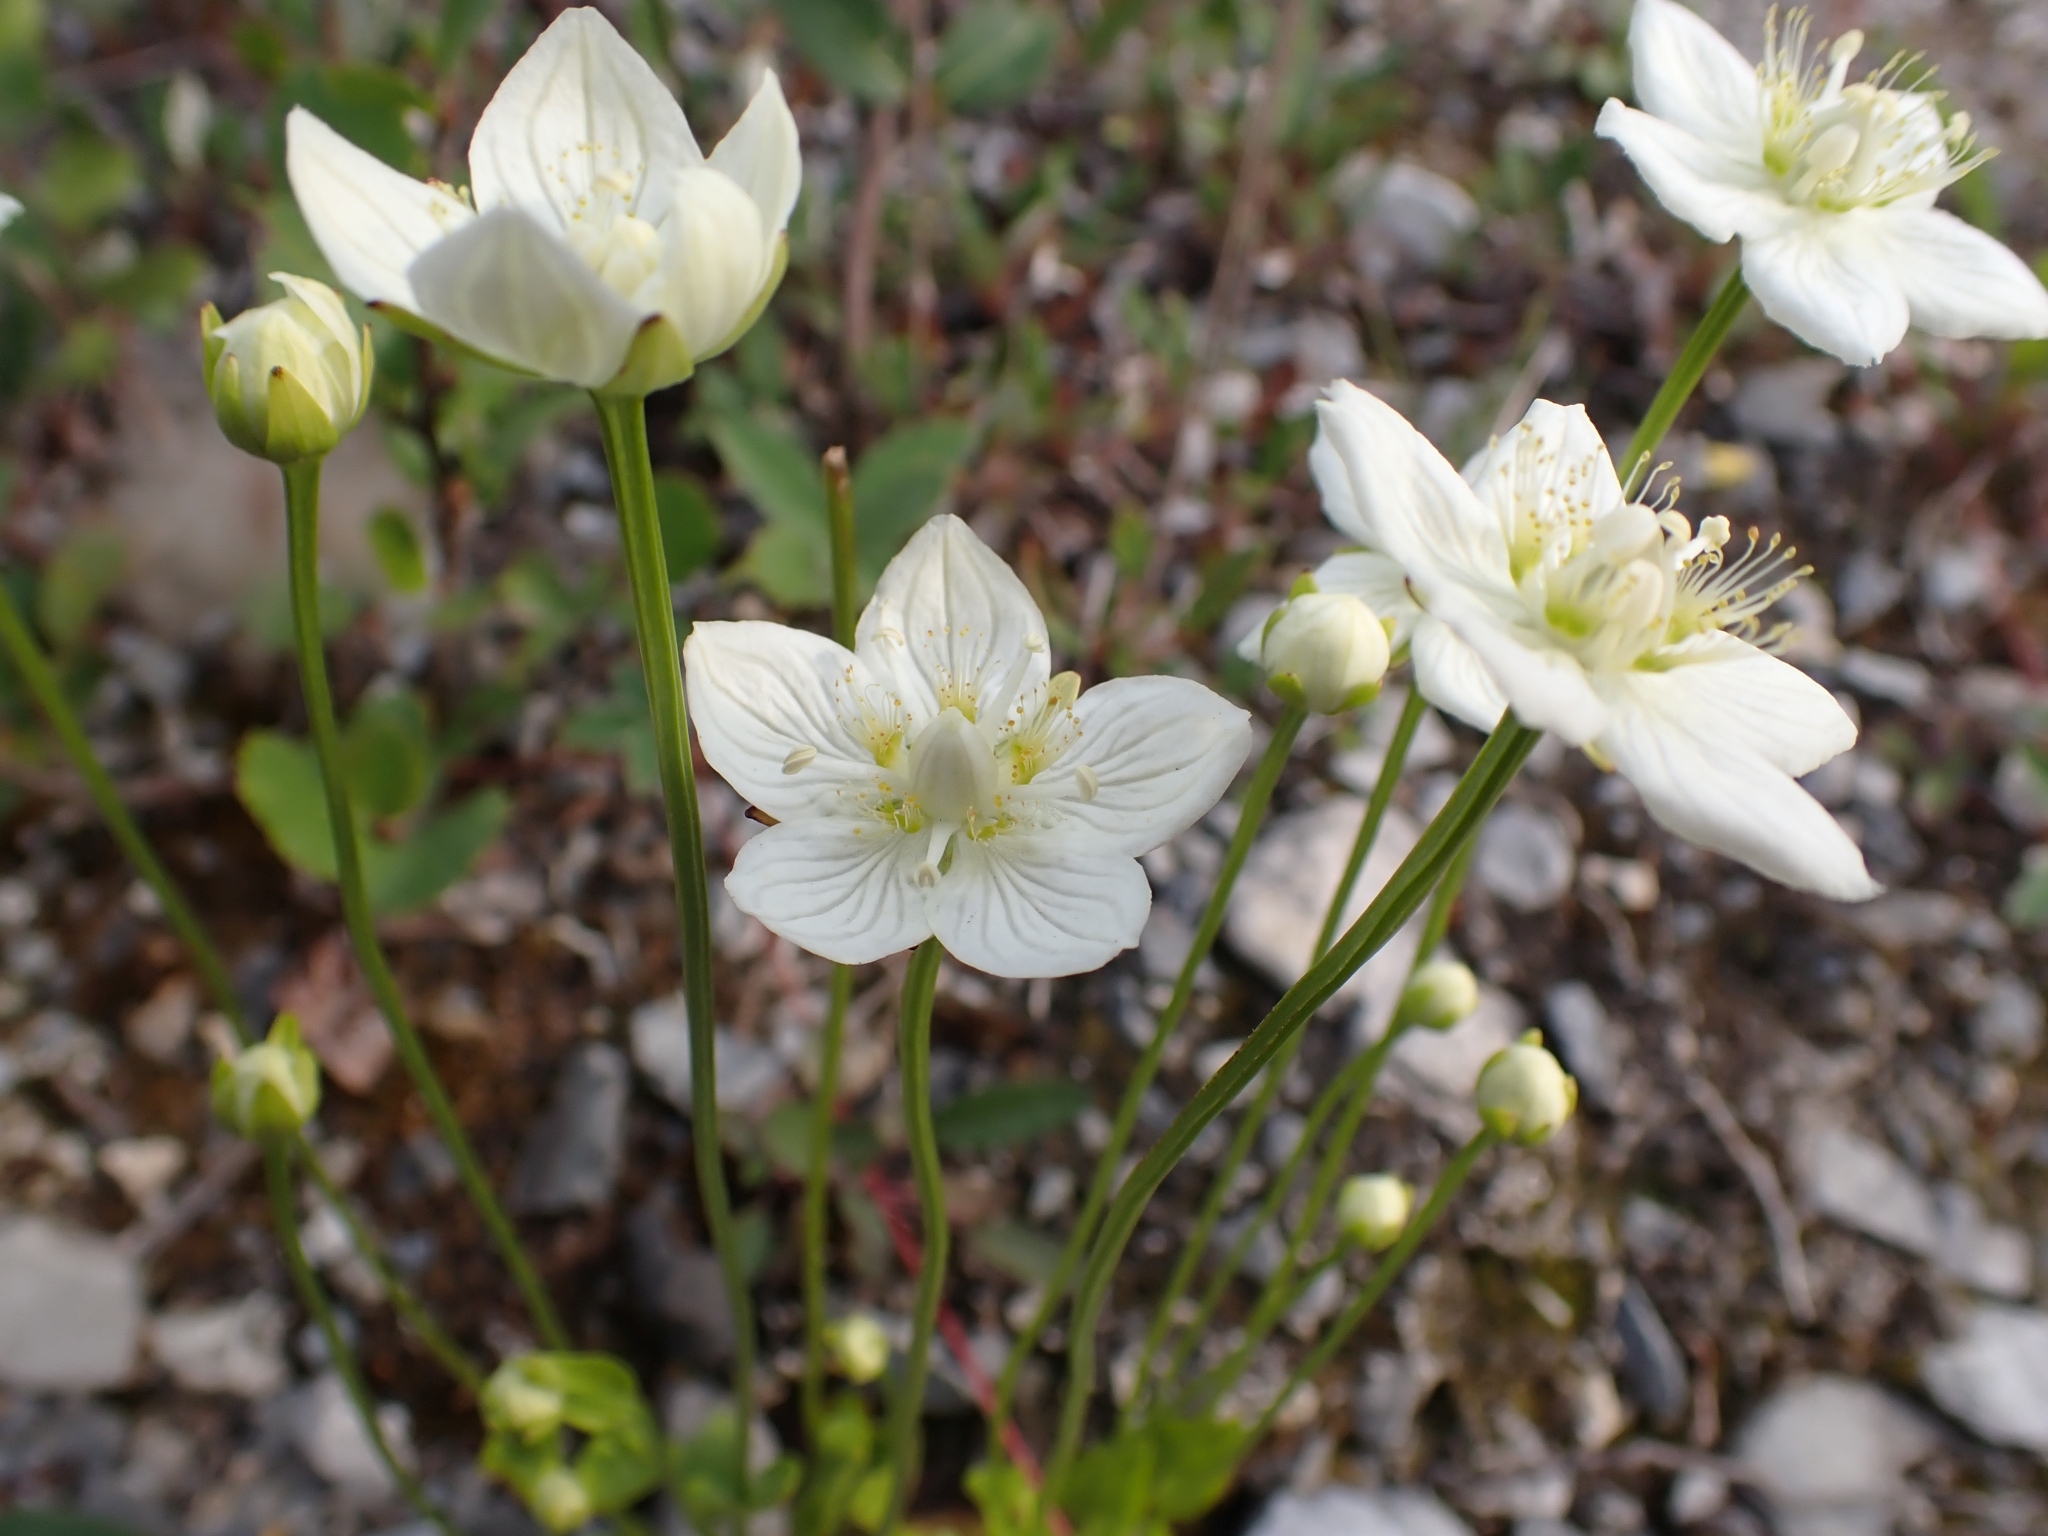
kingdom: Plantae
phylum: Tracheophyta
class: Magnoliopsida
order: Celastrales
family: Parnassiaceae
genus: Parnassia
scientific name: Parnassia palustris
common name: Grass-of-parnassus
